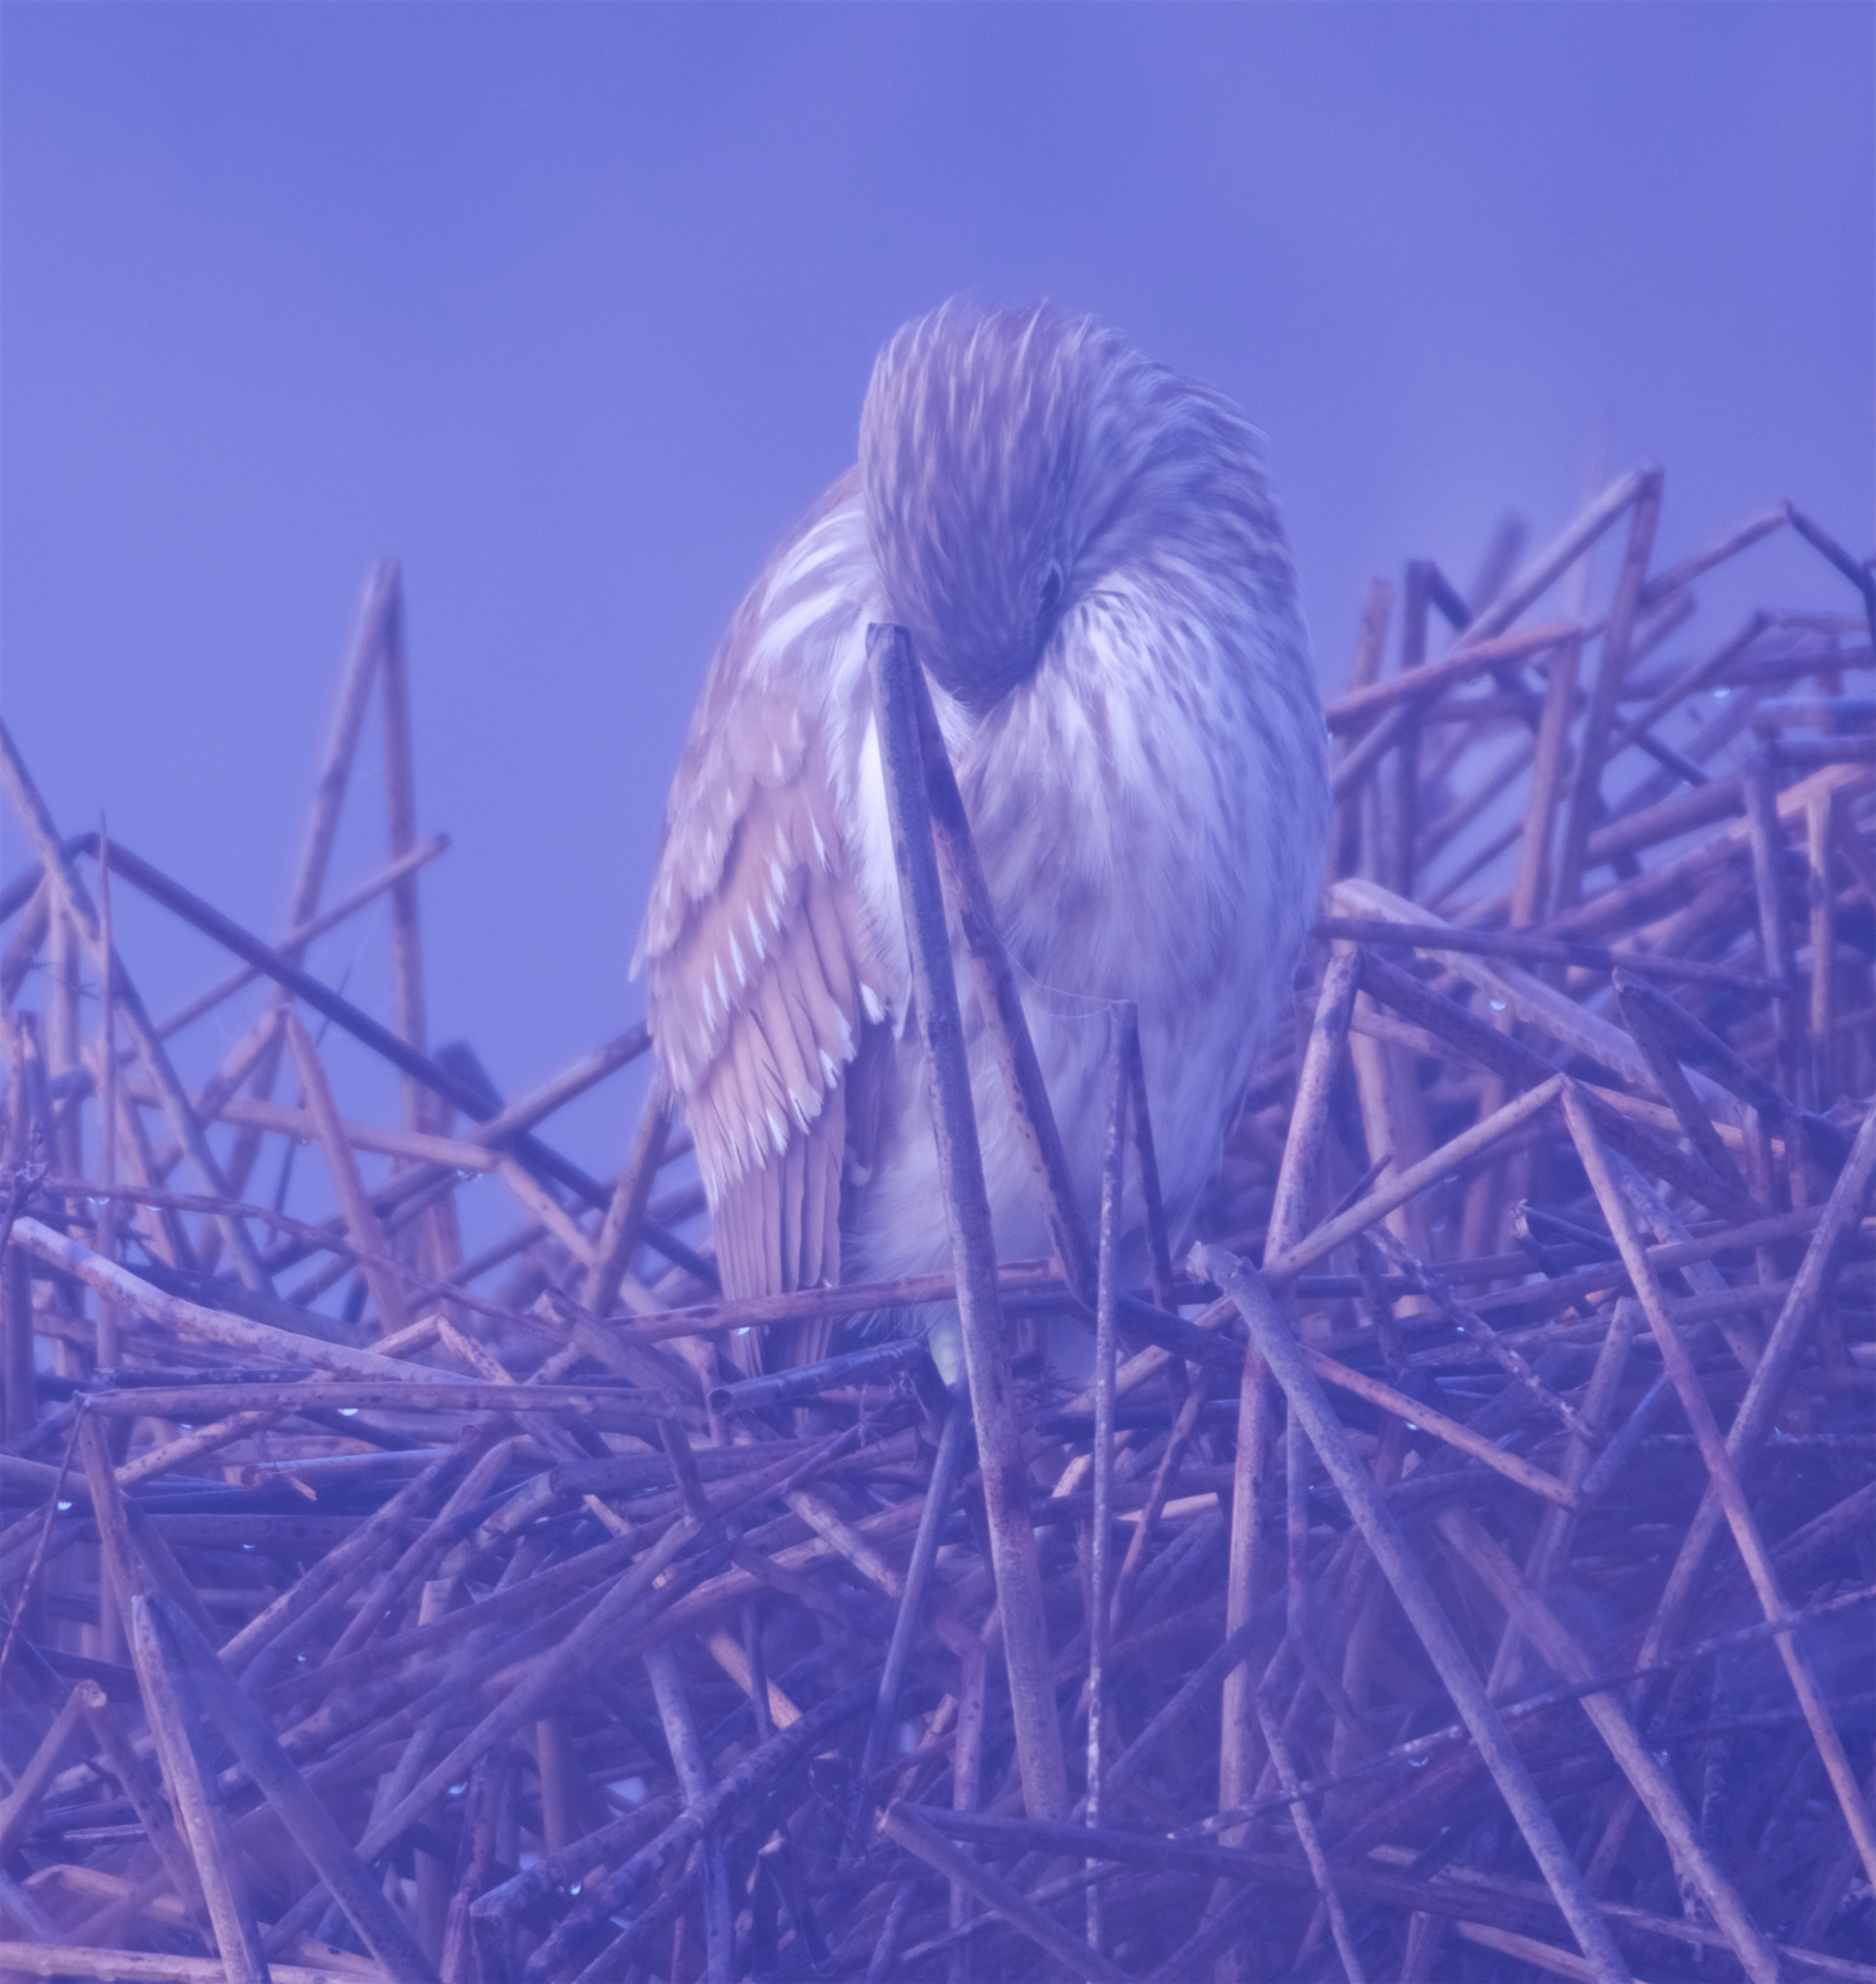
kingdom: Animalia
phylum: Chordata
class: Aves
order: Pelecaniformes
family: Ardeidae
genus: Nycticorax
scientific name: Nycticorax nycticorax
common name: Black-crowned night heron
